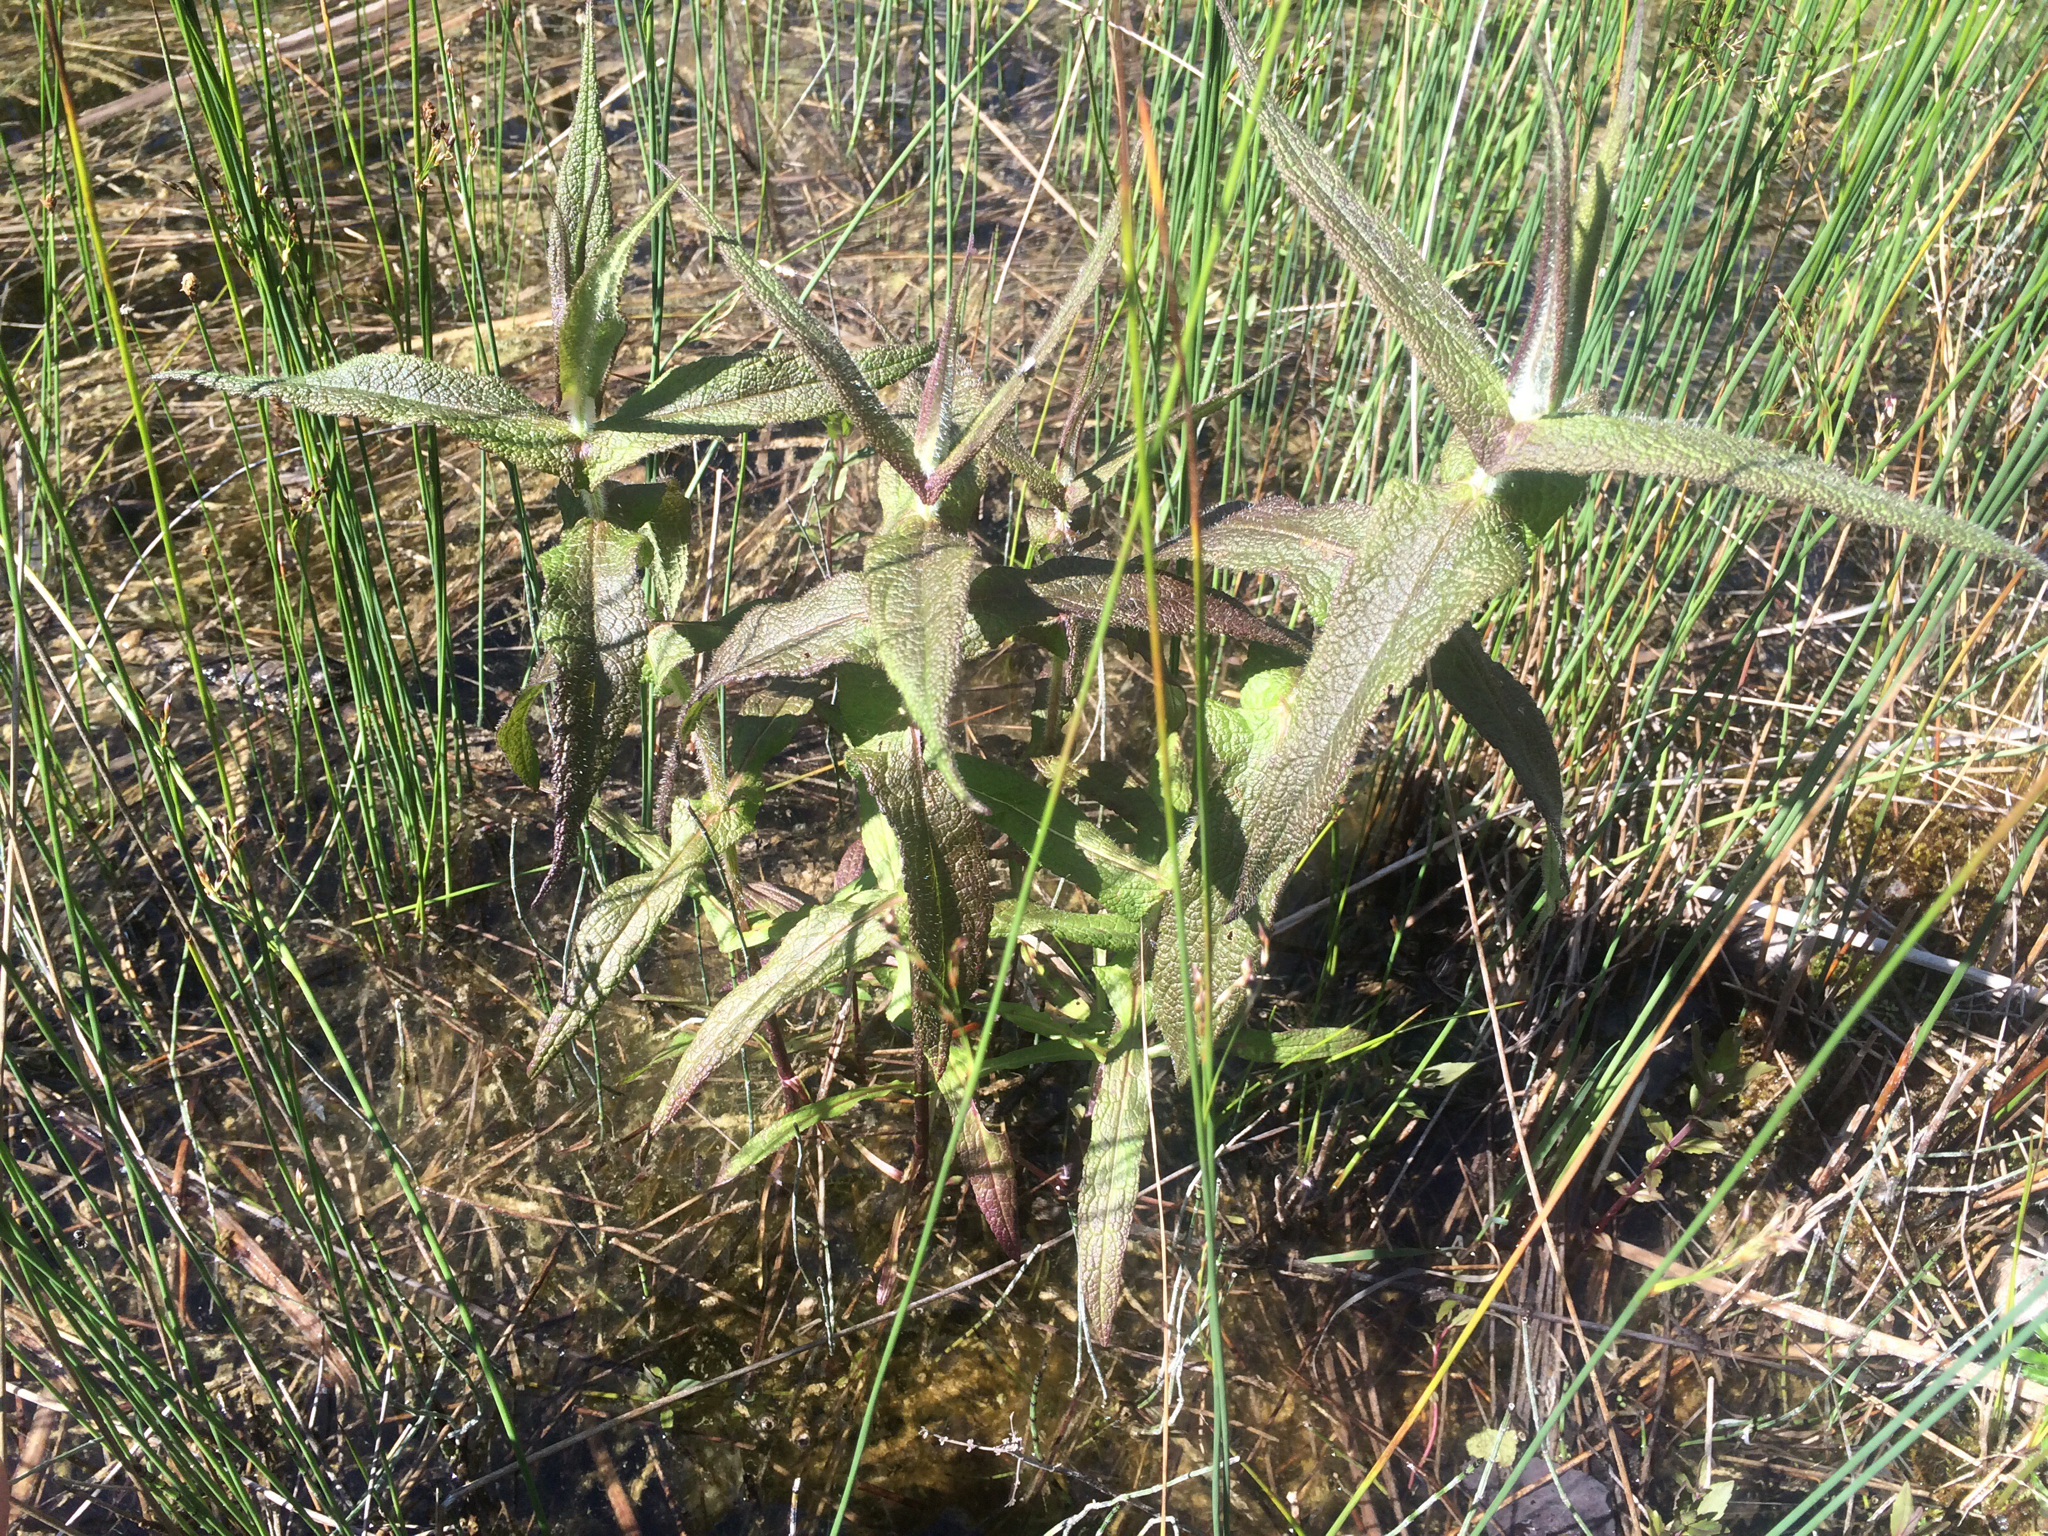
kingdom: Plantae
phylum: Tracheophyta
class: Magnoliopsida
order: Asterales
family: Asteraceae
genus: Eupatorium
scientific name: Eupatorium perfoliatum
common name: Boneset
